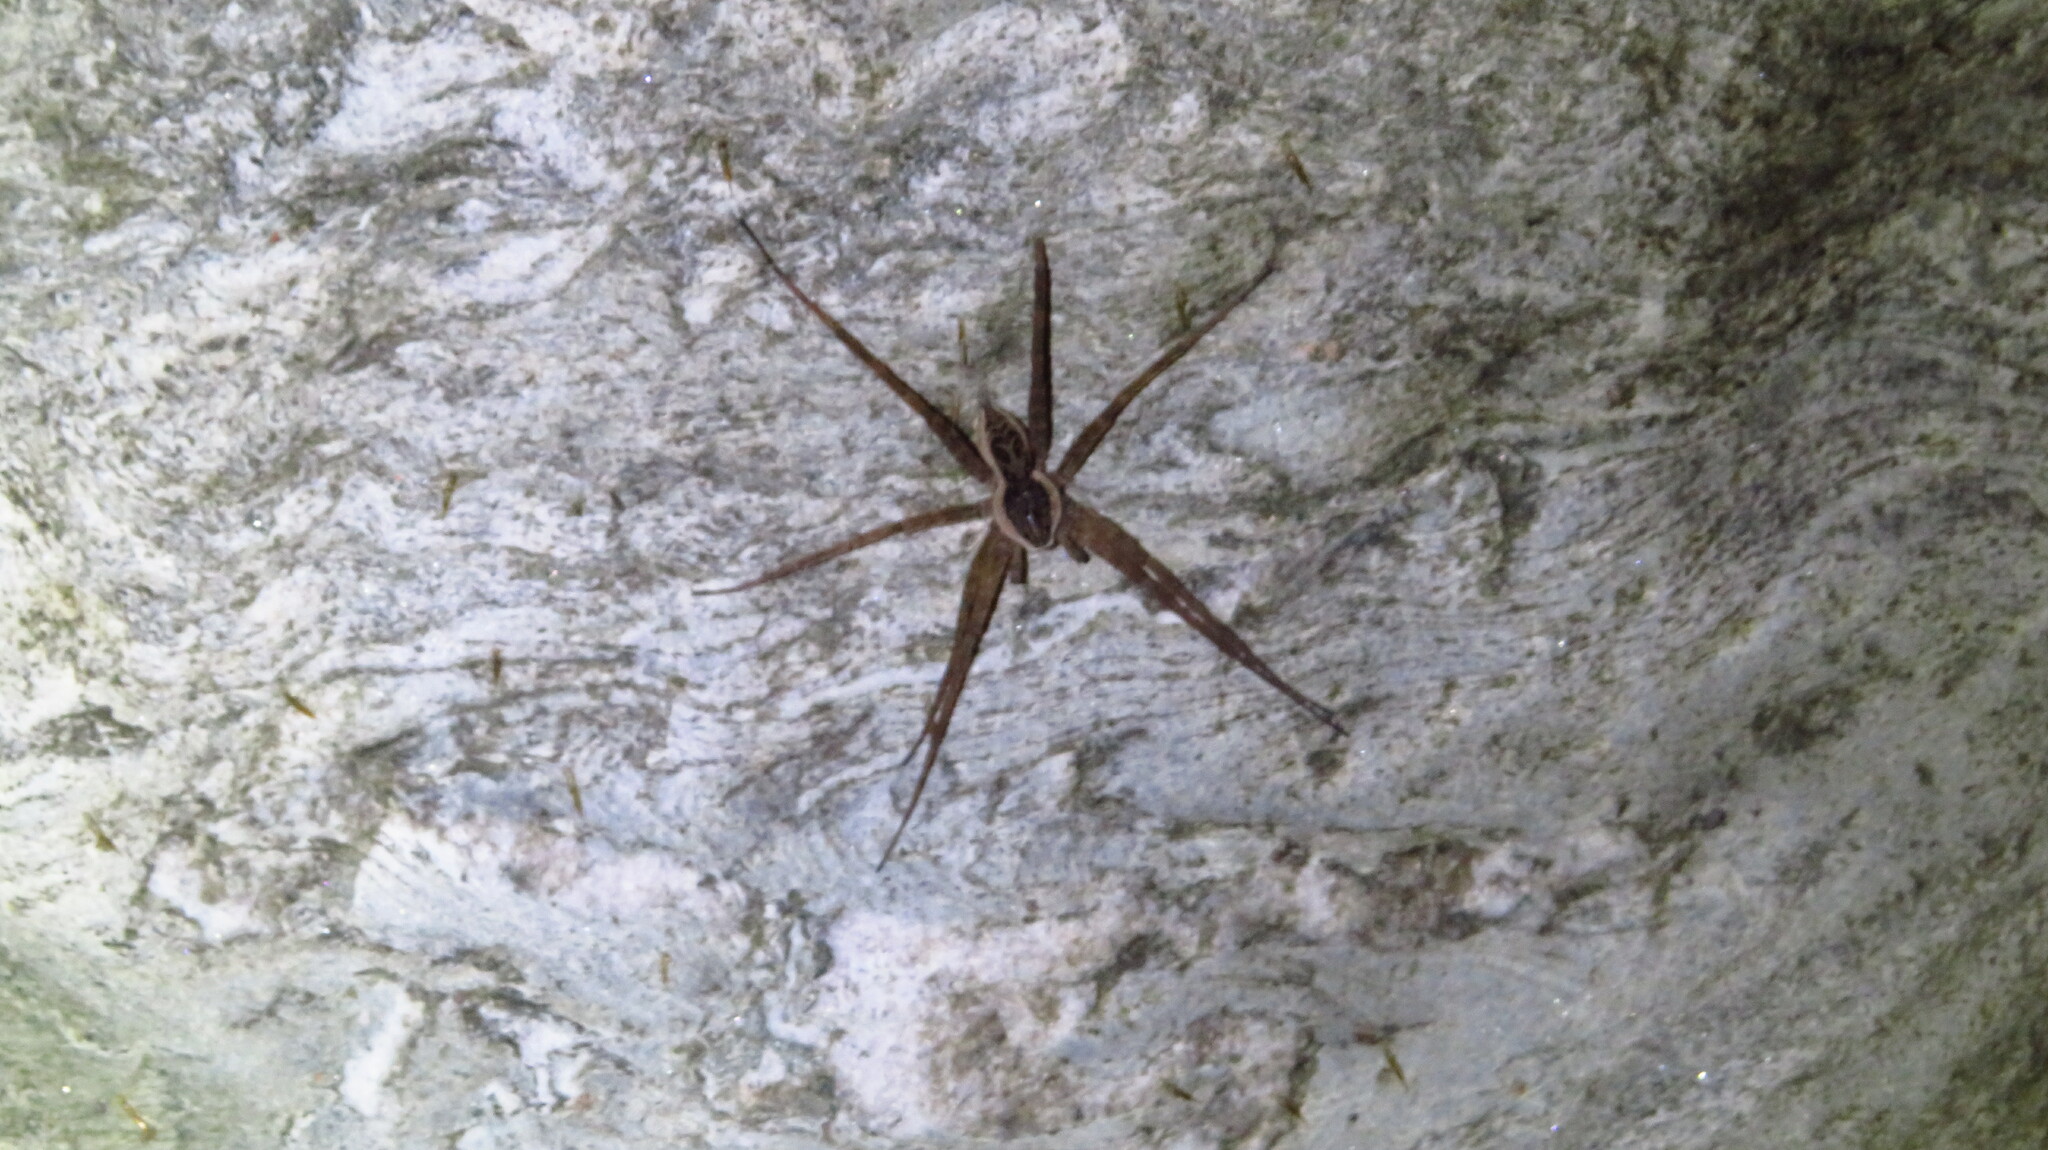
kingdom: Animalia
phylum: Arthropoda
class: Arachnida
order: Araneae
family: Pisauridae
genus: Dolomedes
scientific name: Dolomedes scriptus
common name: Striped fishing spider
